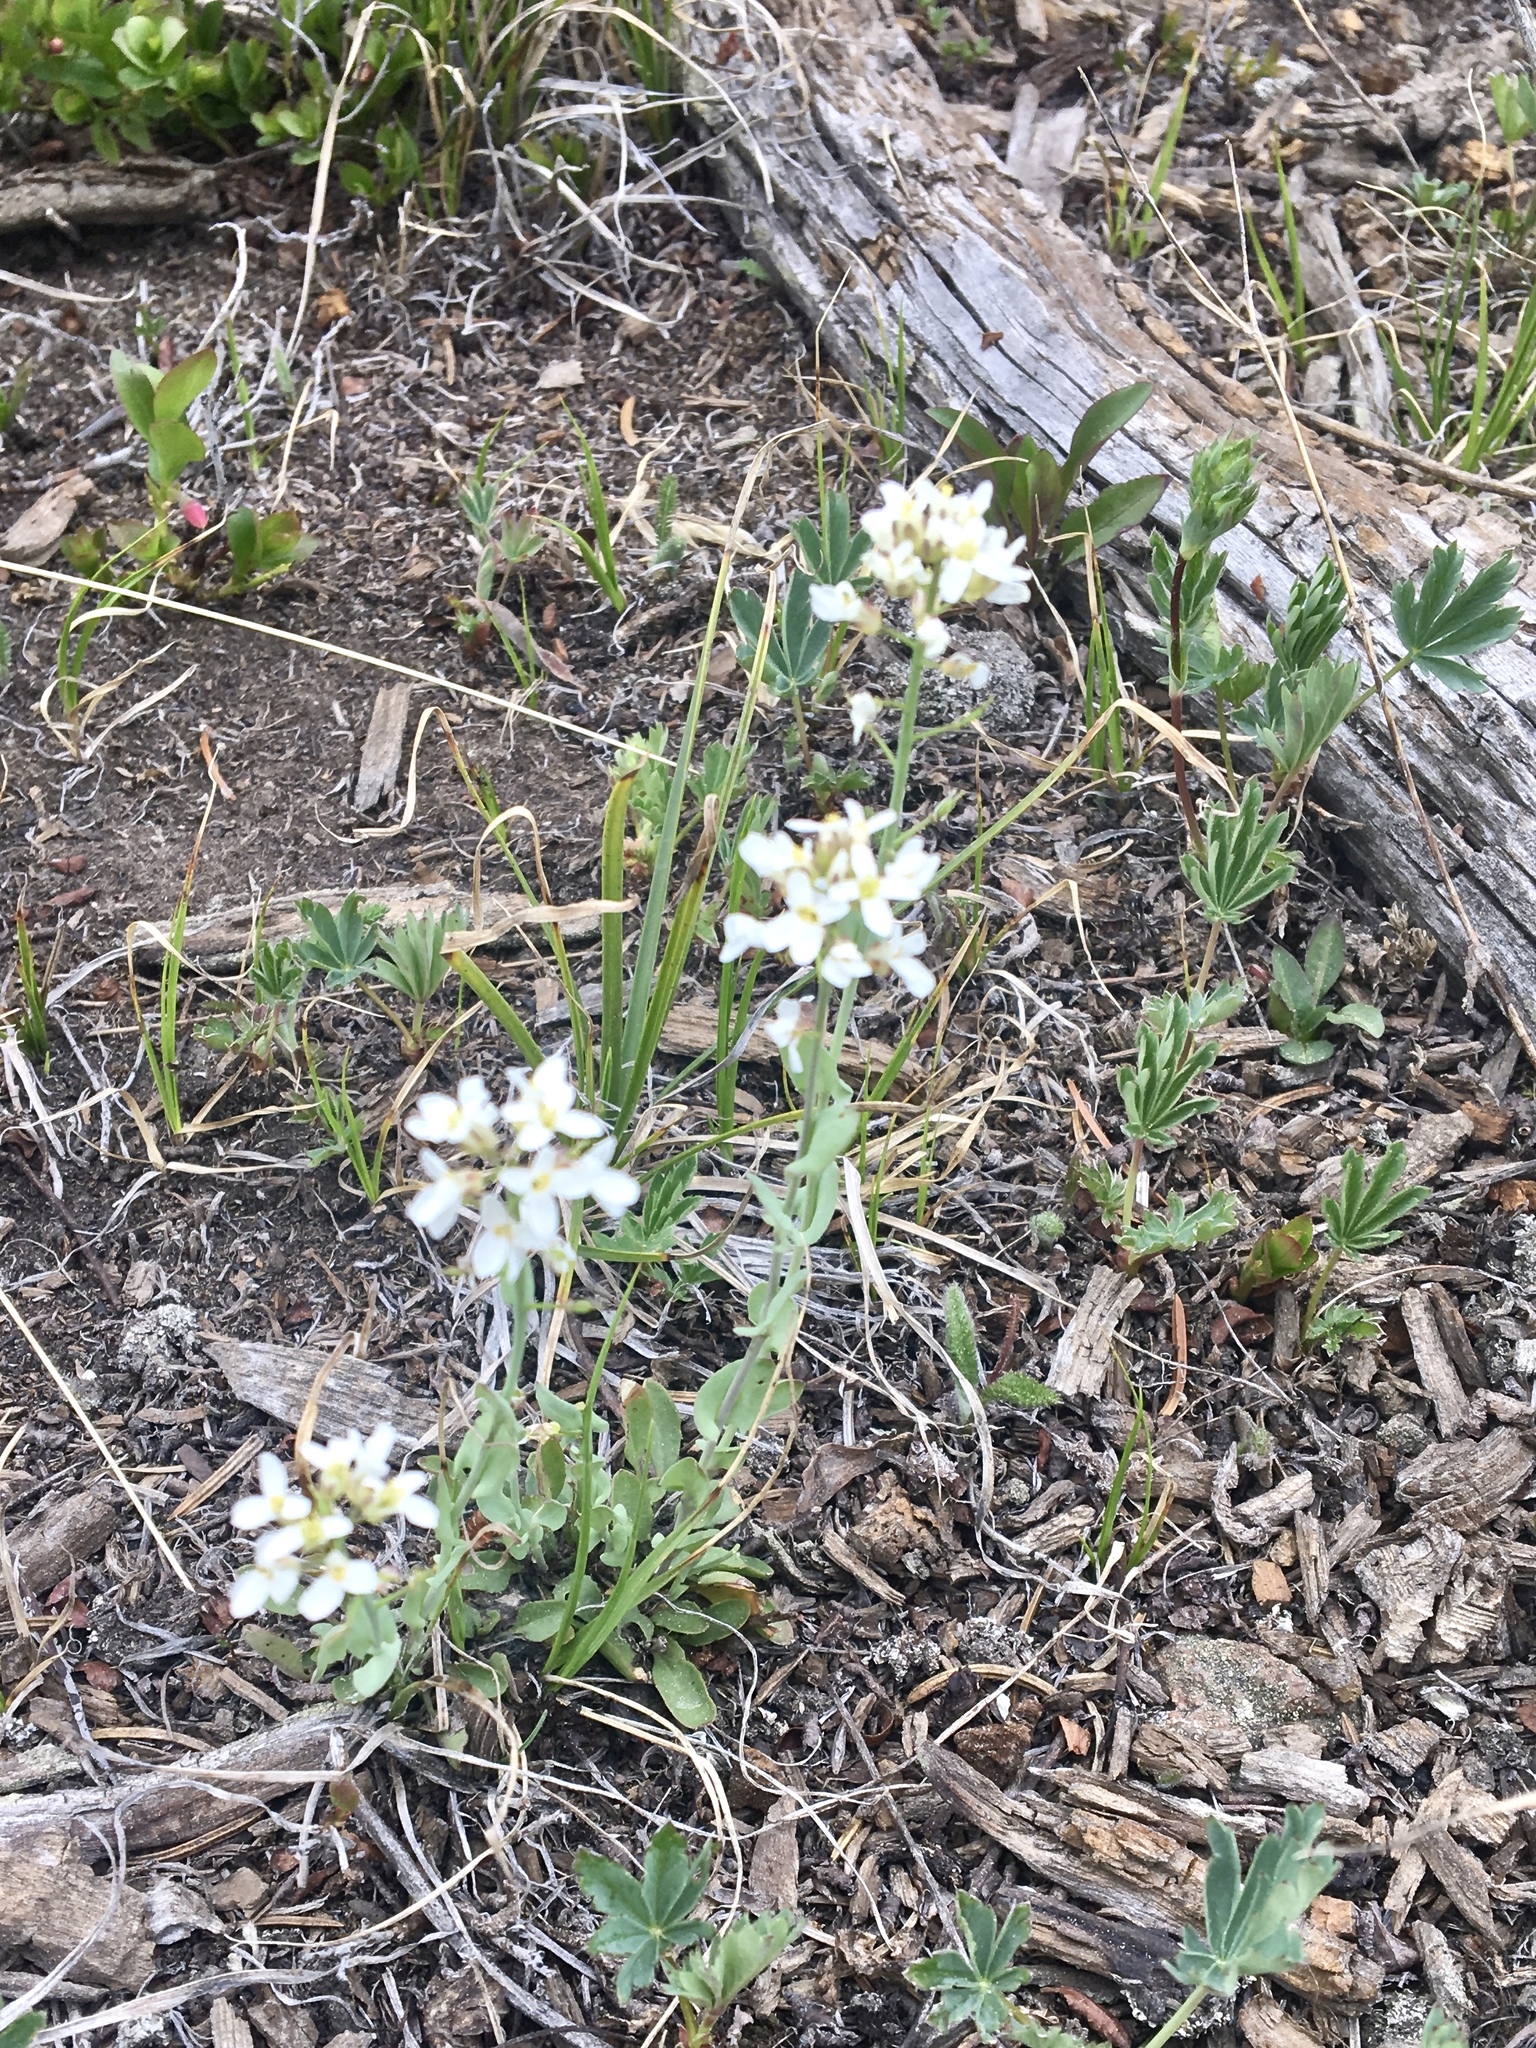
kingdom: Plantae
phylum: Tracheophyta
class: Magnoliopsida
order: Brassicales
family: Brassicaceae
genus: Noccaea
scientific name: Noccaea fendleri
